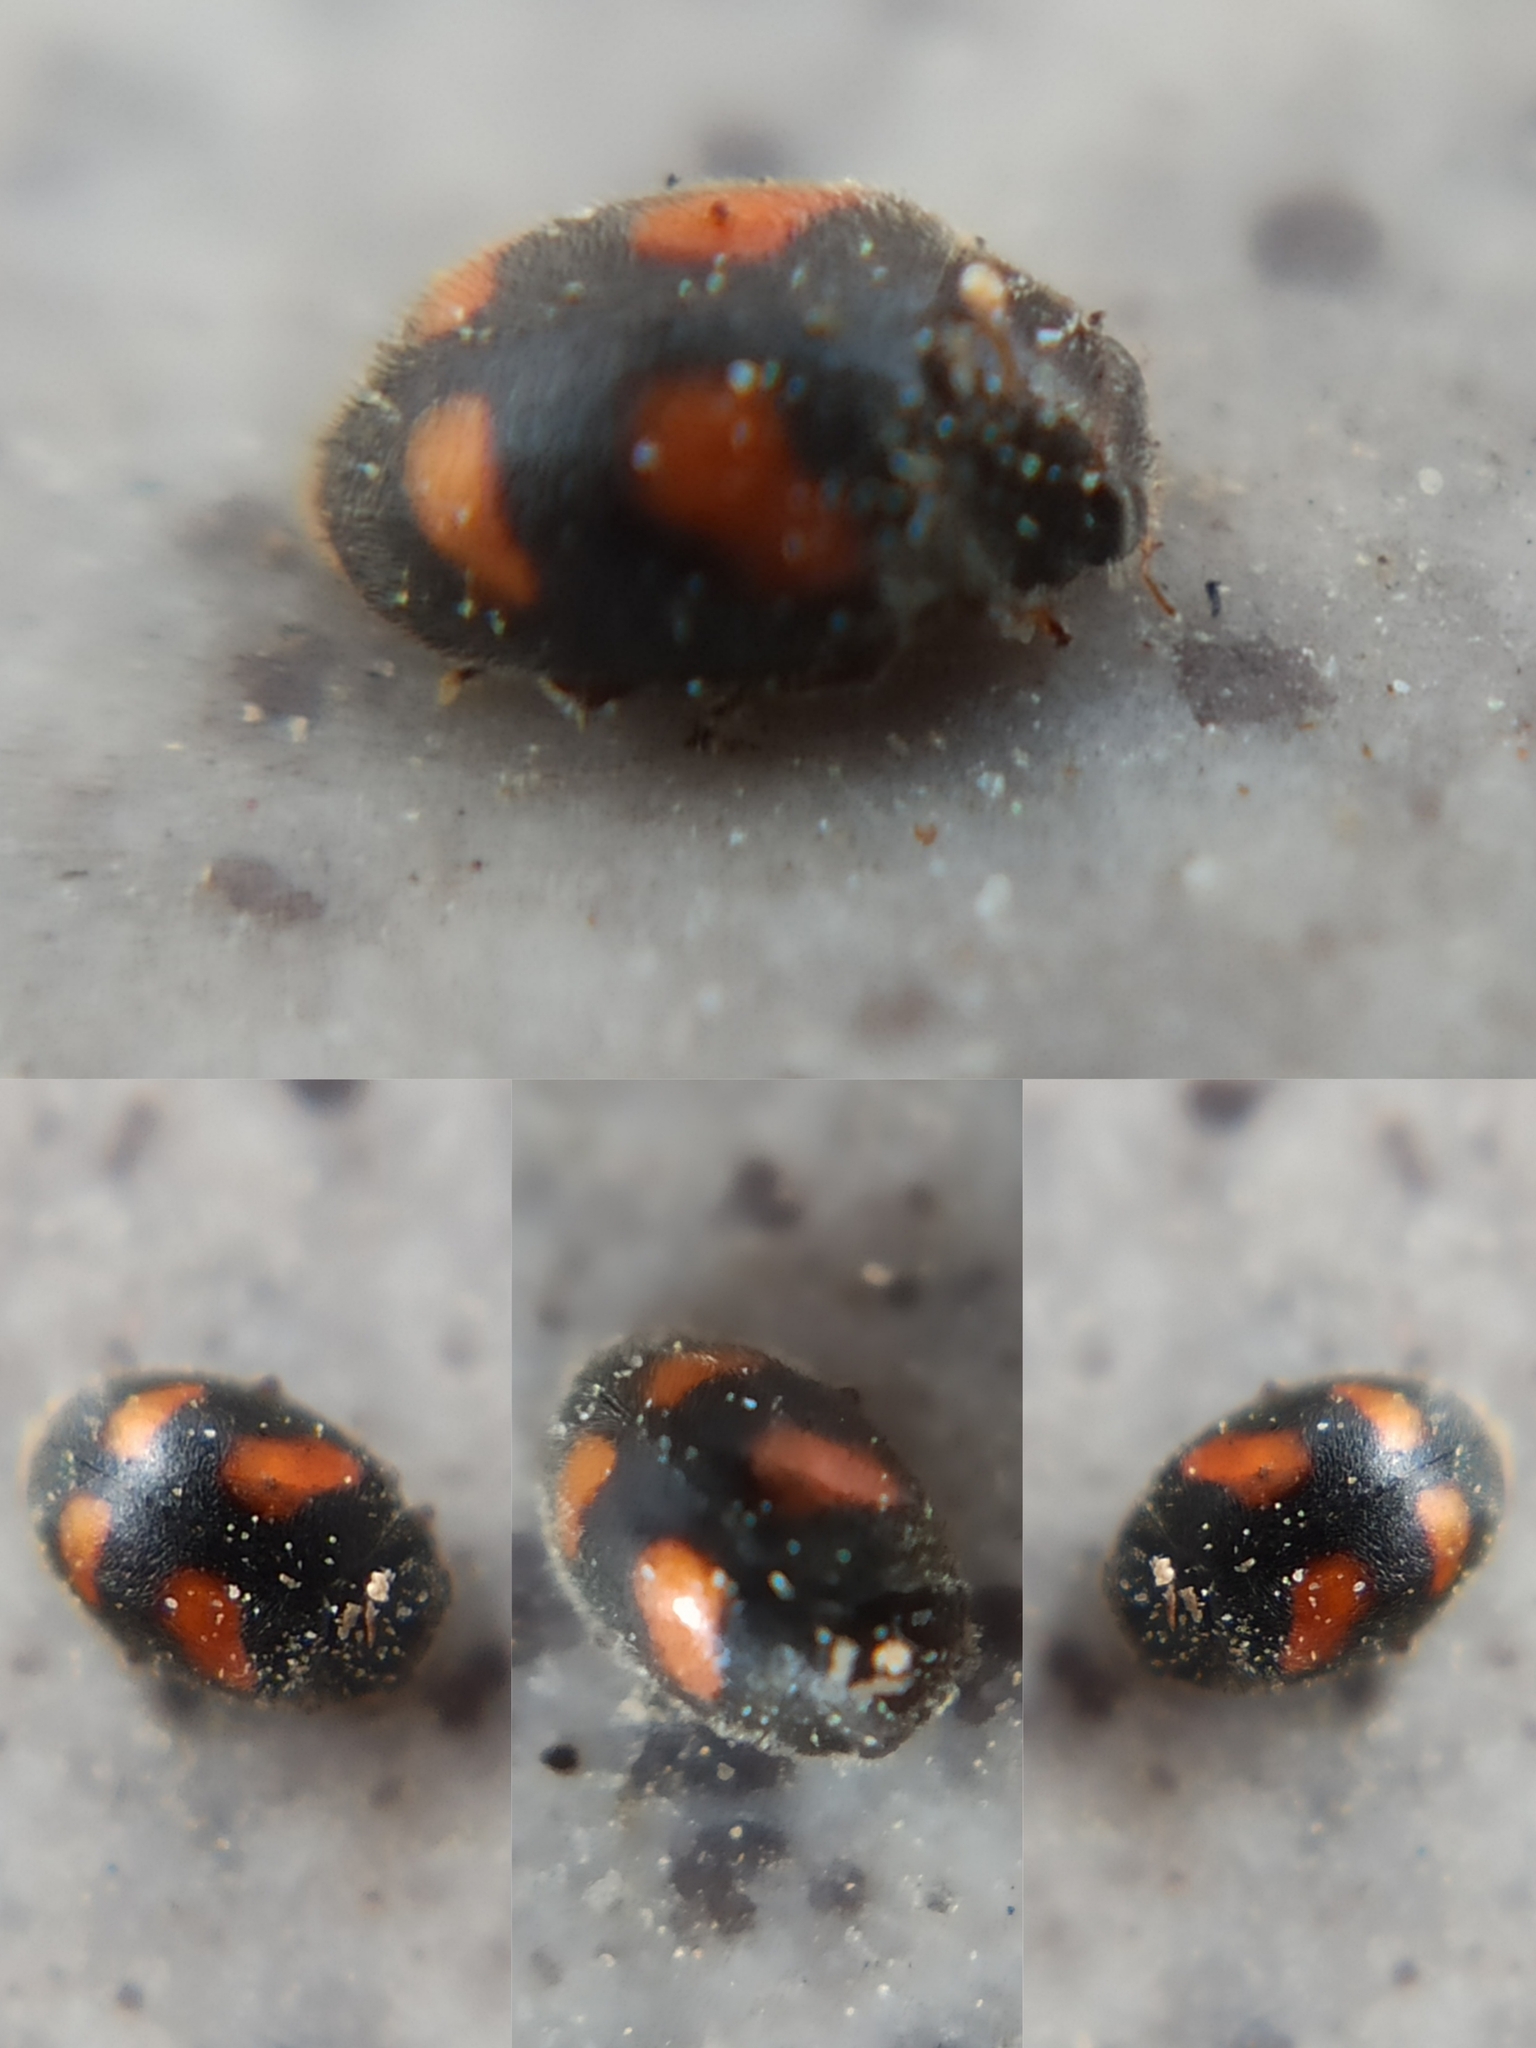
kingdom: Animalia
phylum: Arthropoda
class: Insecta
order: Coleoptera
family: Coccinellidae
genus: Nephus
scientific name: Nephus quadrimaculatus
